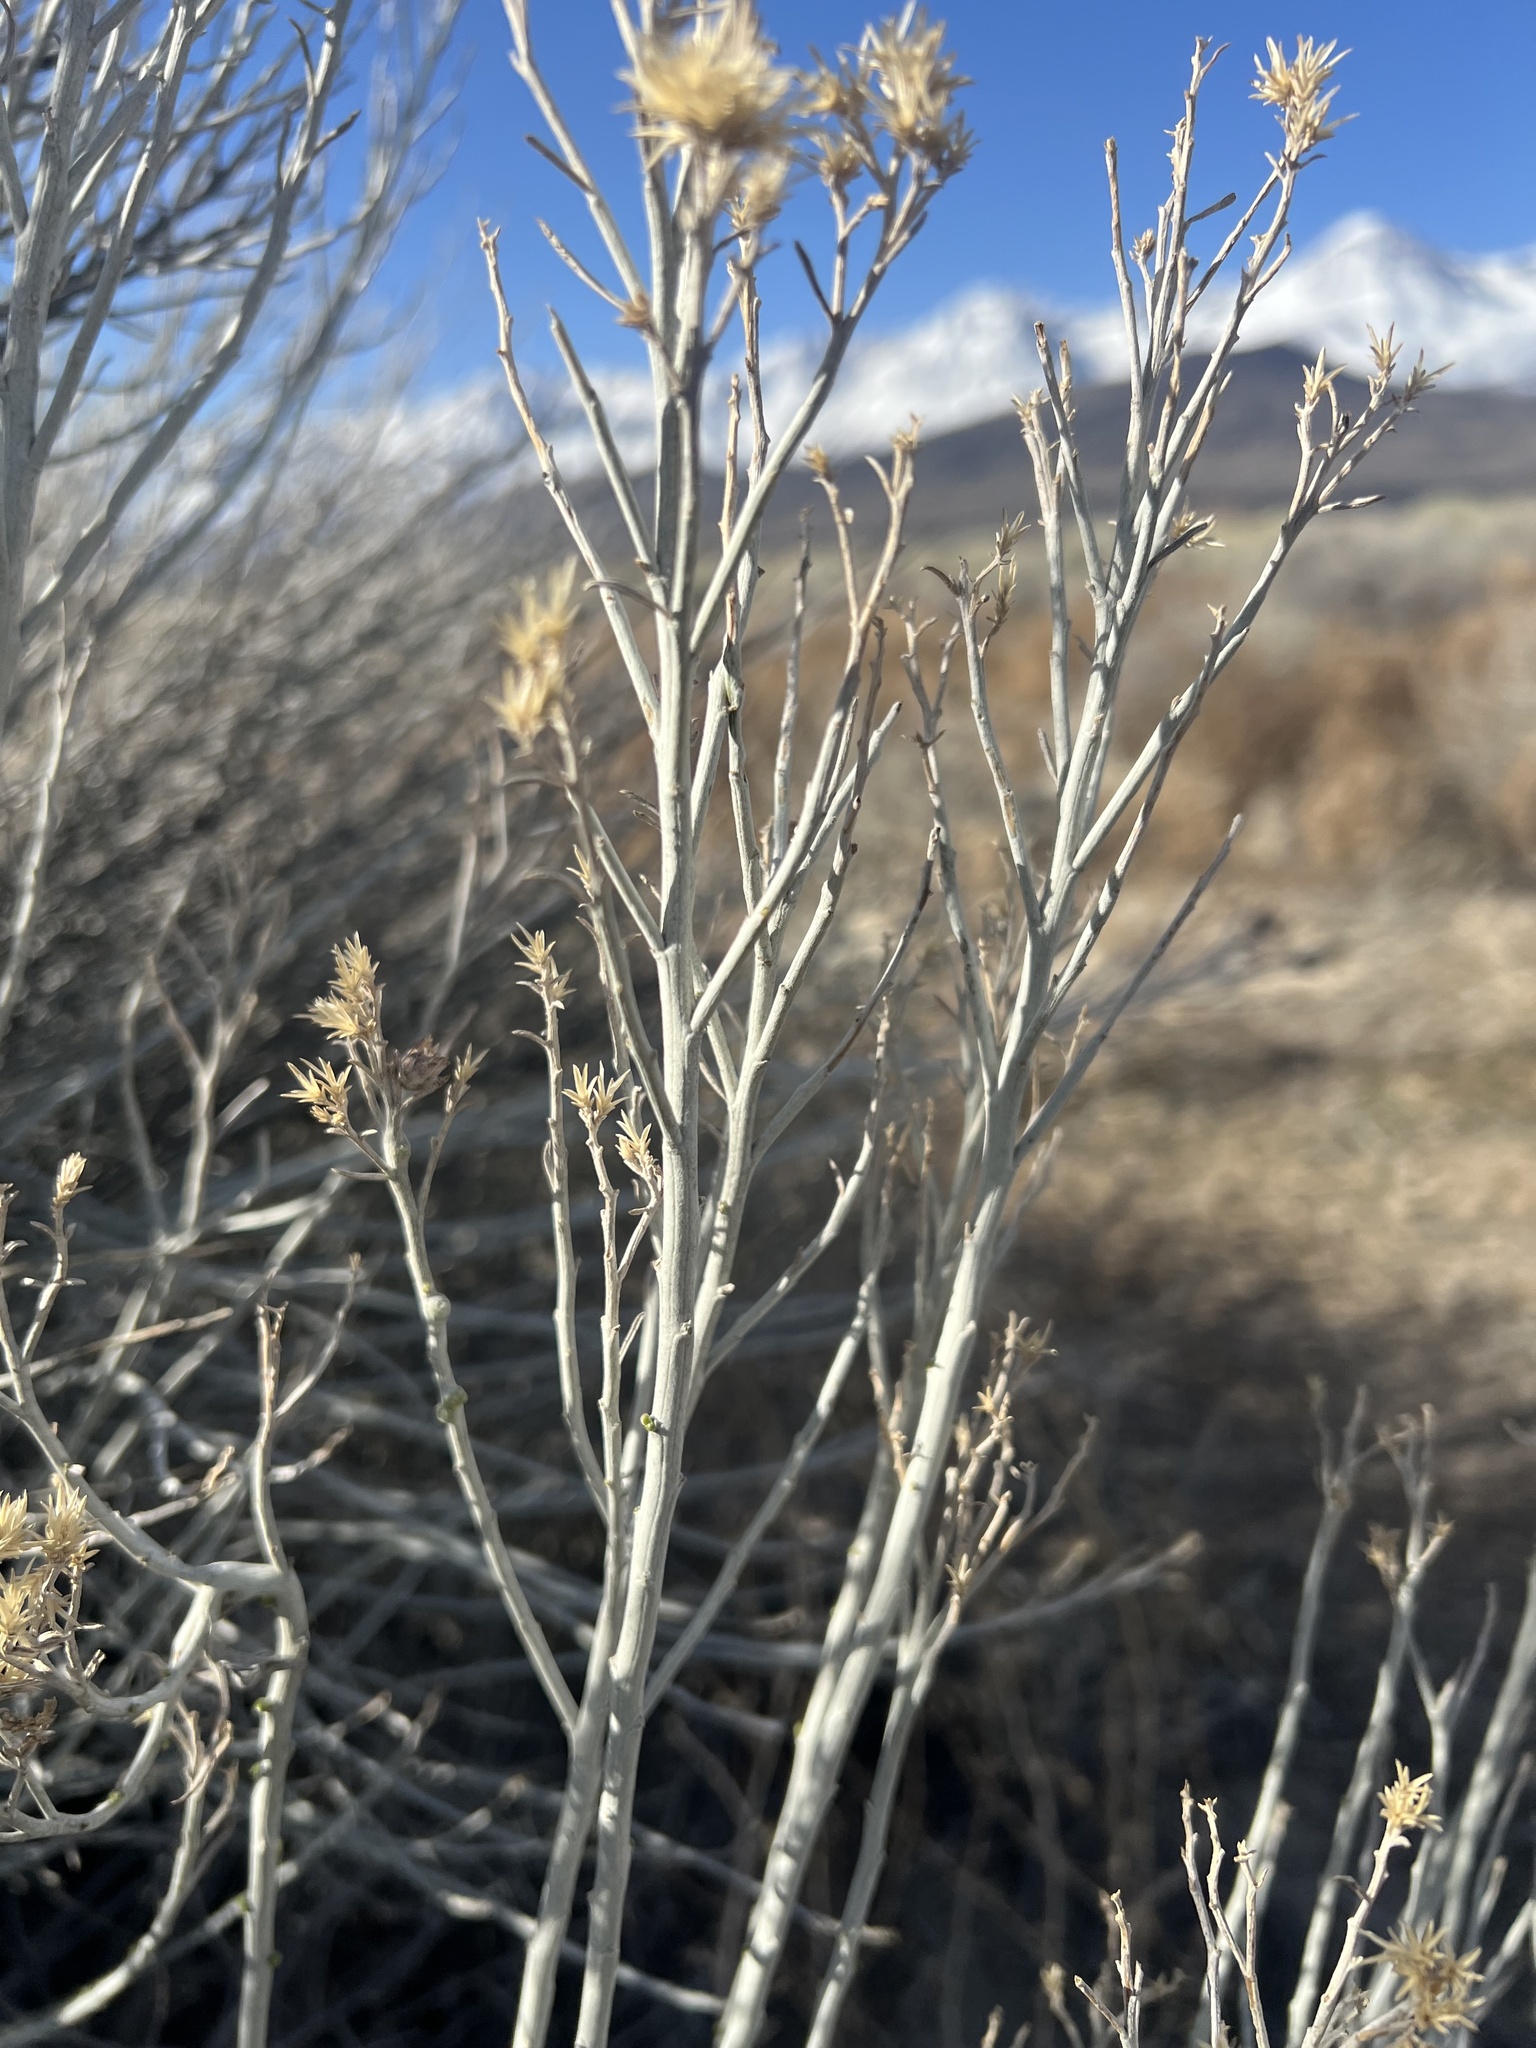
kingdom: Plantae
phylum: Tracheophyta
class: Magnoliopsida
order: Asterales
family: Asteraceae
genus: Ericameria
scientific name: Ericameria nauseosa
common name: Rubber rabbitbrush
